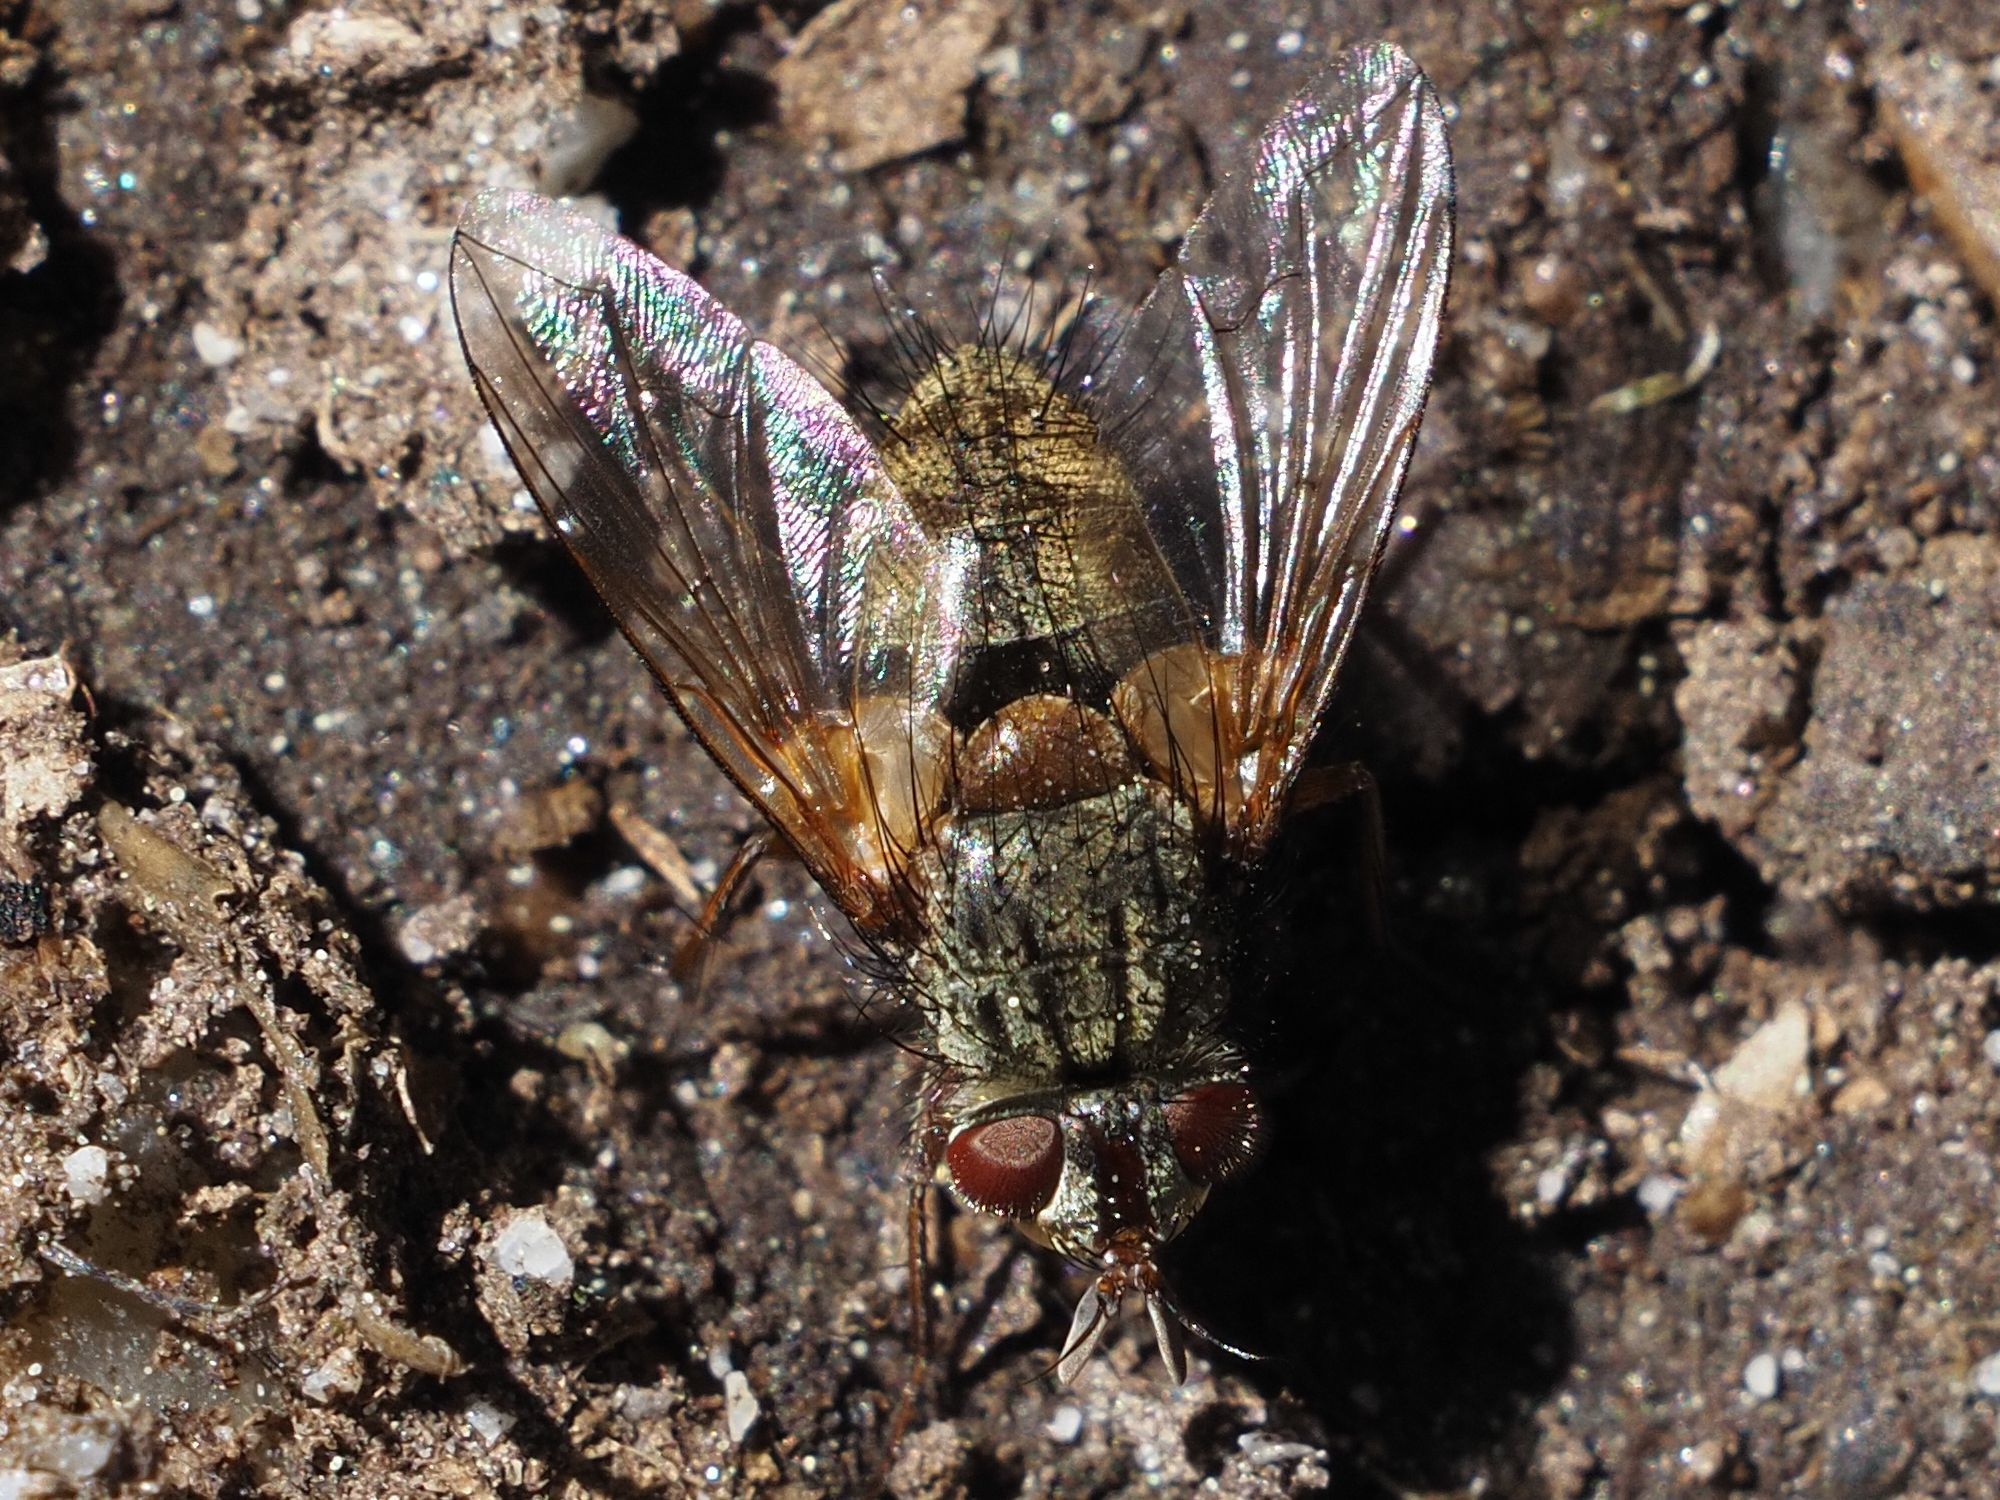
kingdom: Animalia
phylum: Arthropoda
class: Insecta
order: Diptera
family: Tachinidae
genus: Phryno
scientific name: Phryno vetula
